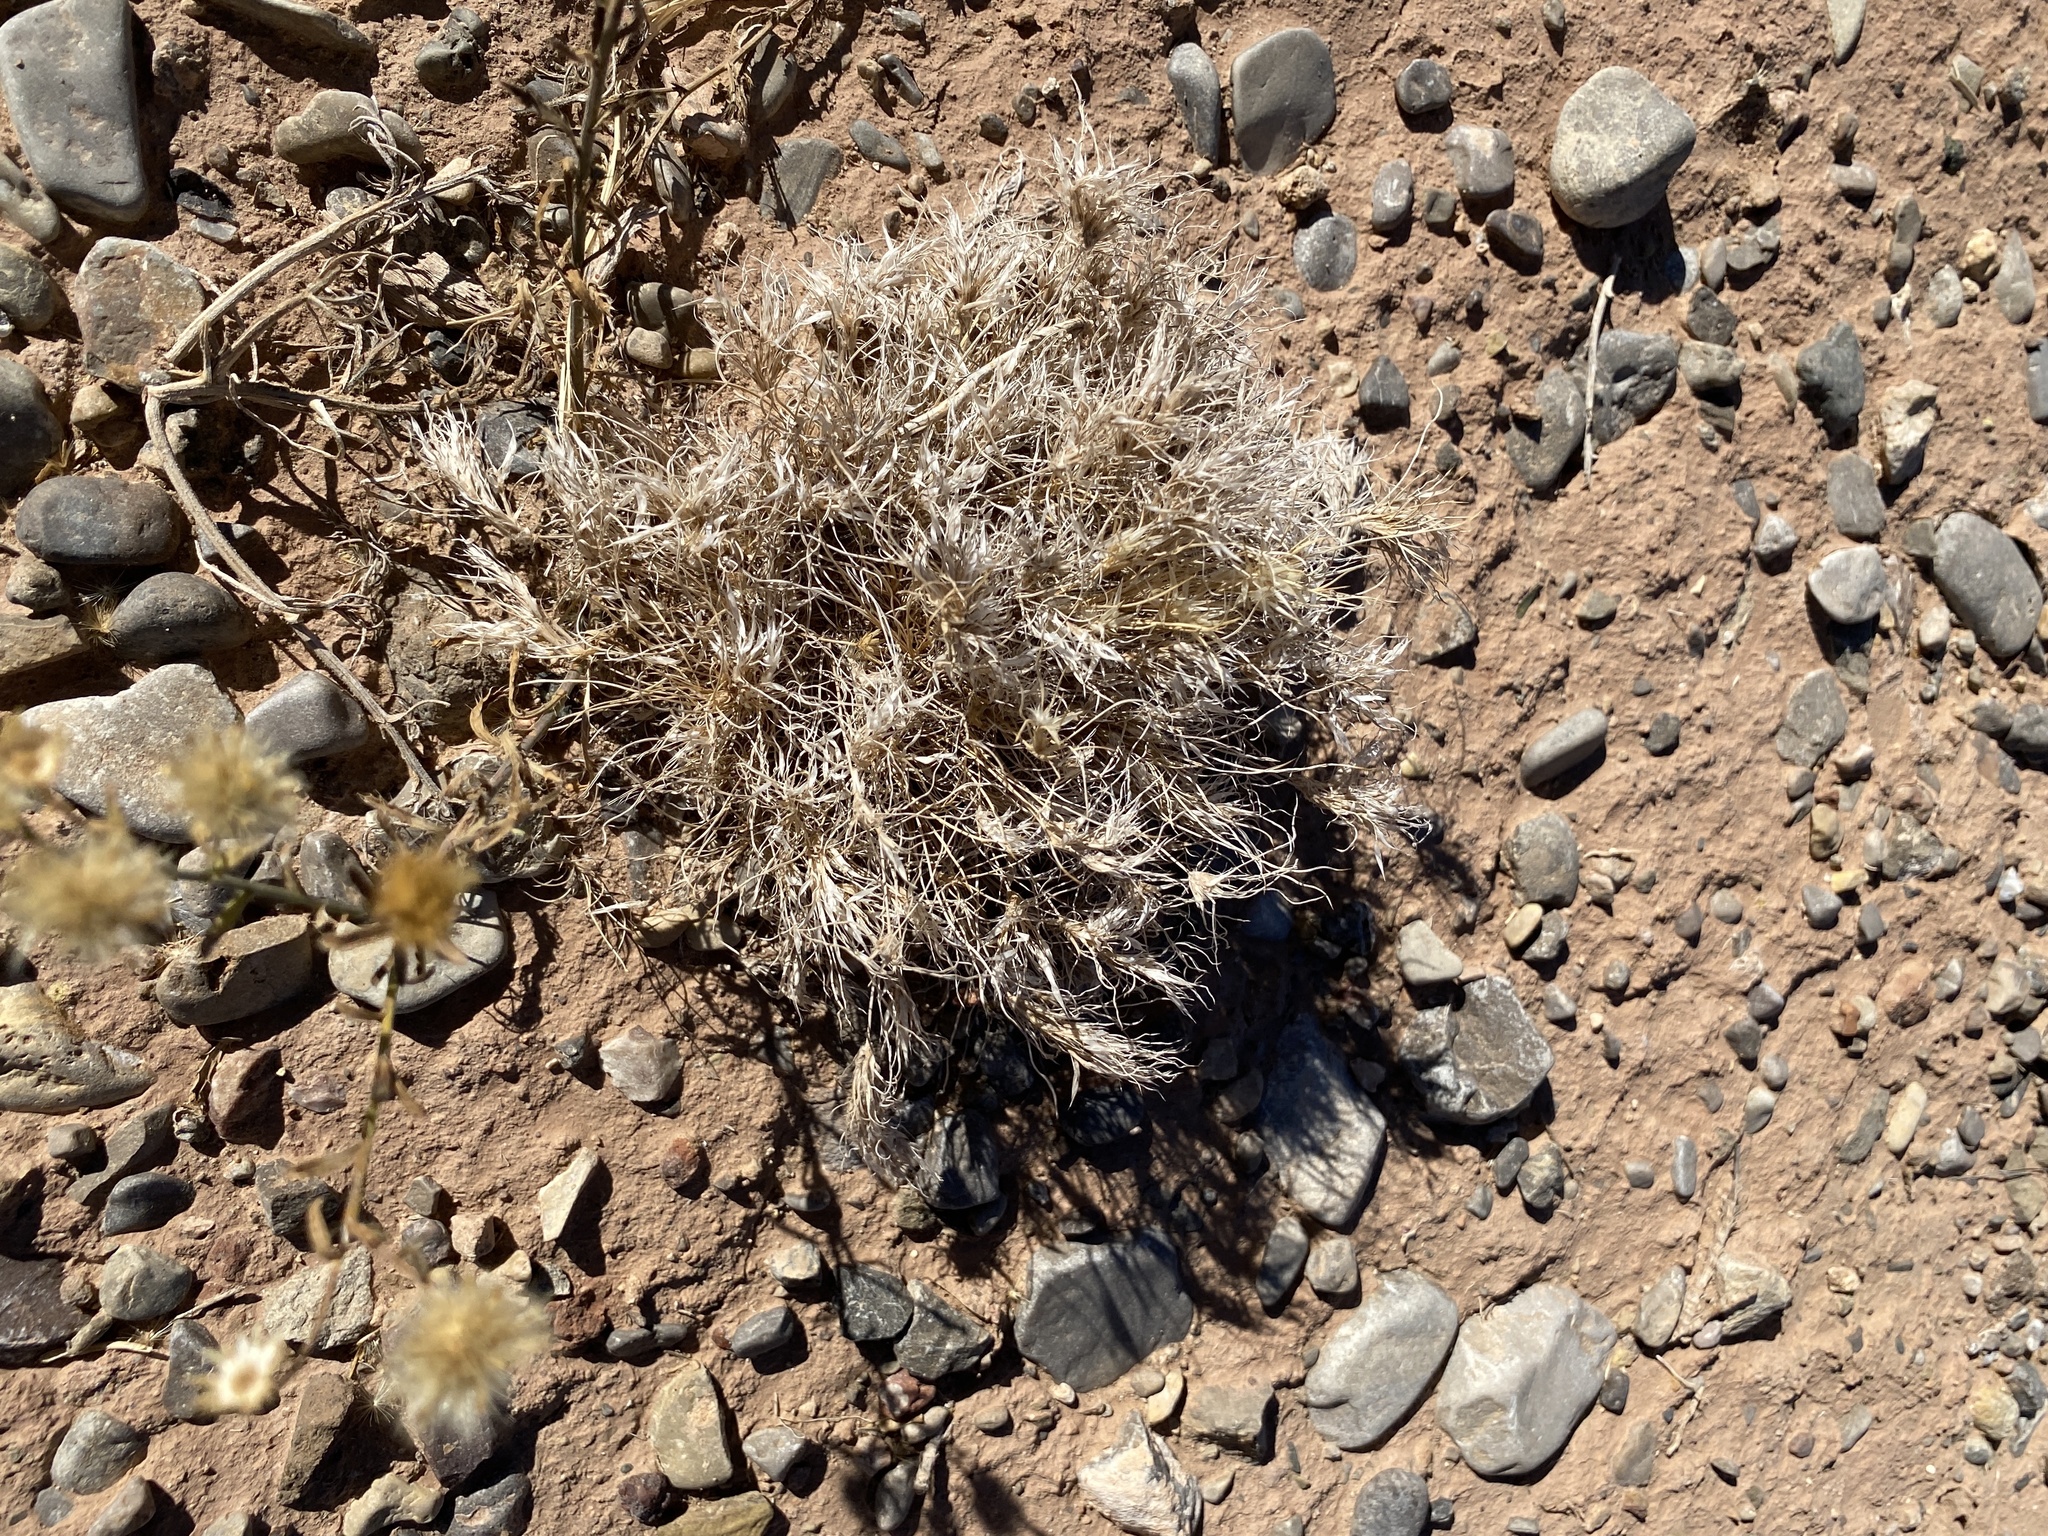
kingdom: Plantae
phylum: Tracheophyta
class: Liliopsida
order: Poales
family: Poaceae
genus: Dasyochloa
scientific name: Dasyochloa pulchella
